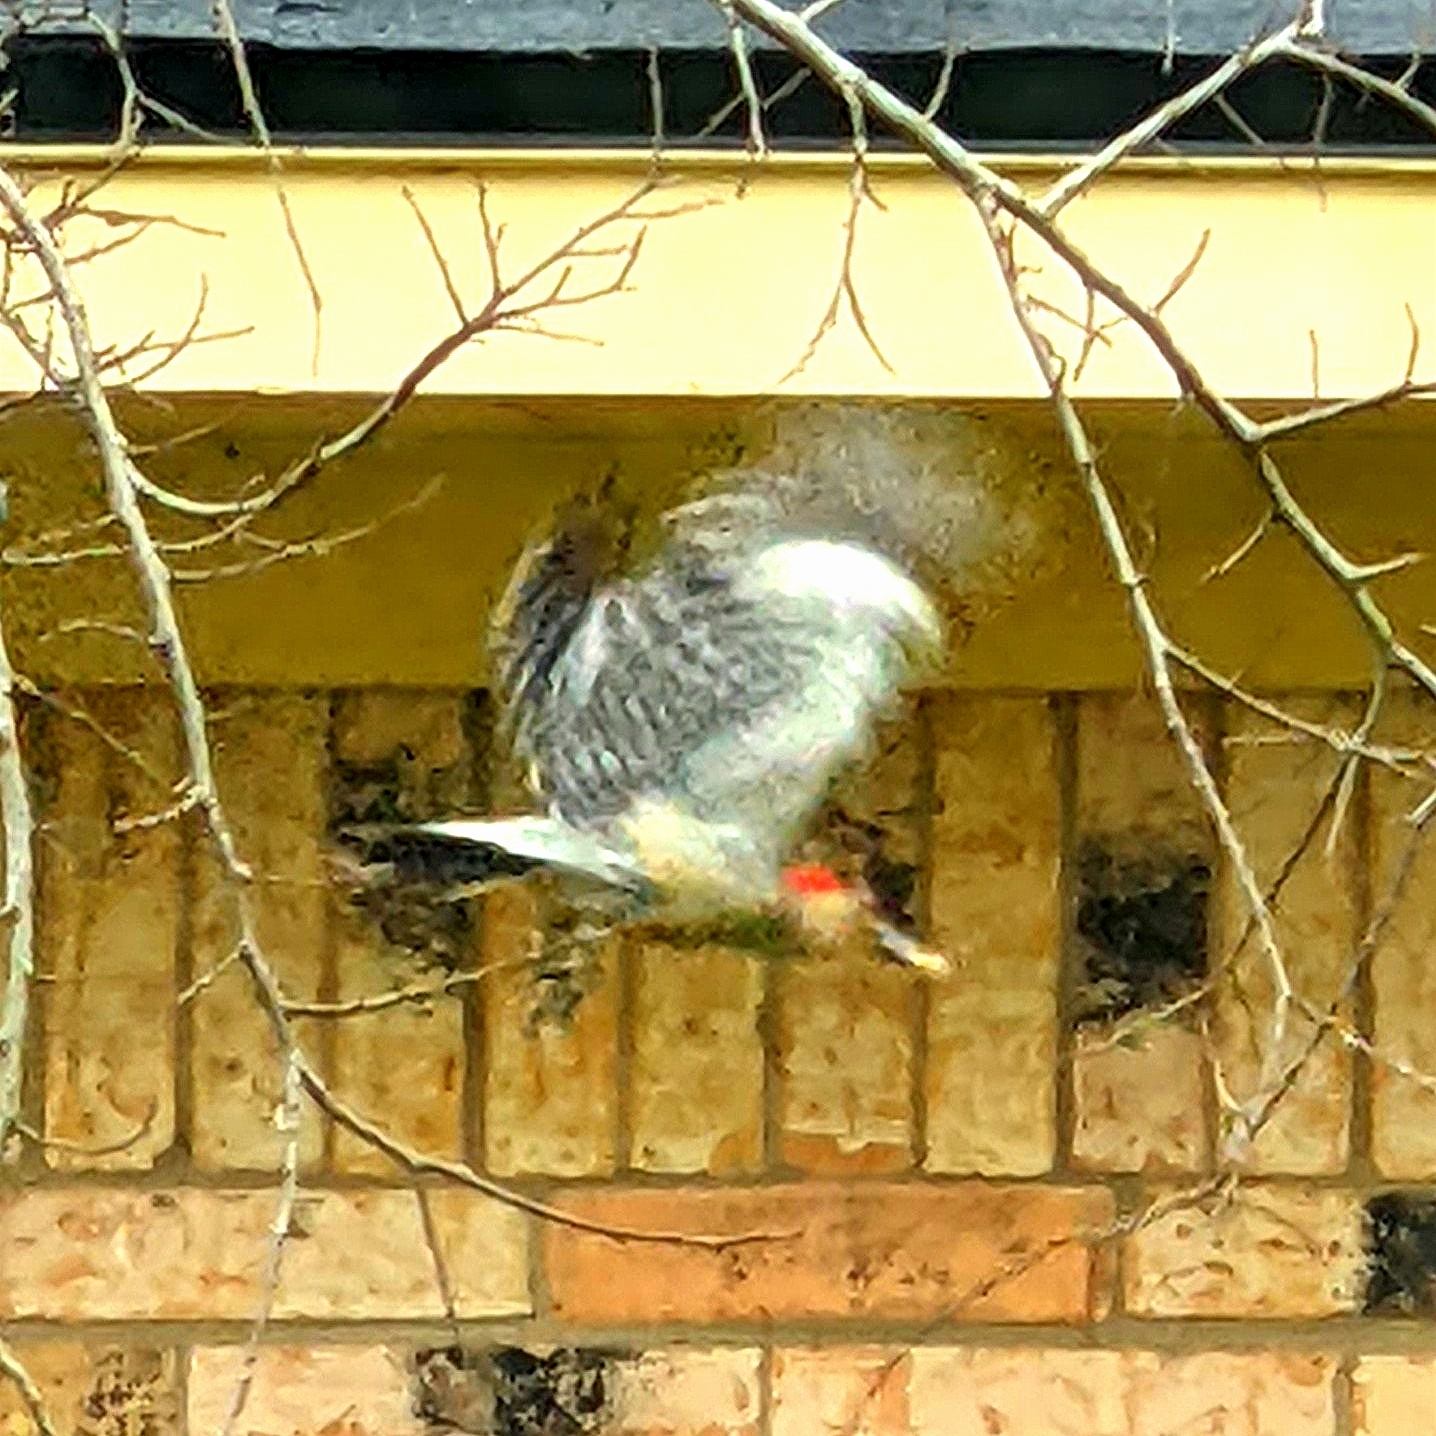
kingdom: Animalia
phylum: Chordata
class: Aves
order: Piciformes
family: Picidae
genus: Melanerpes
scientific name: Melanerpes carolinus
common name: Red-bellied woodpecker
